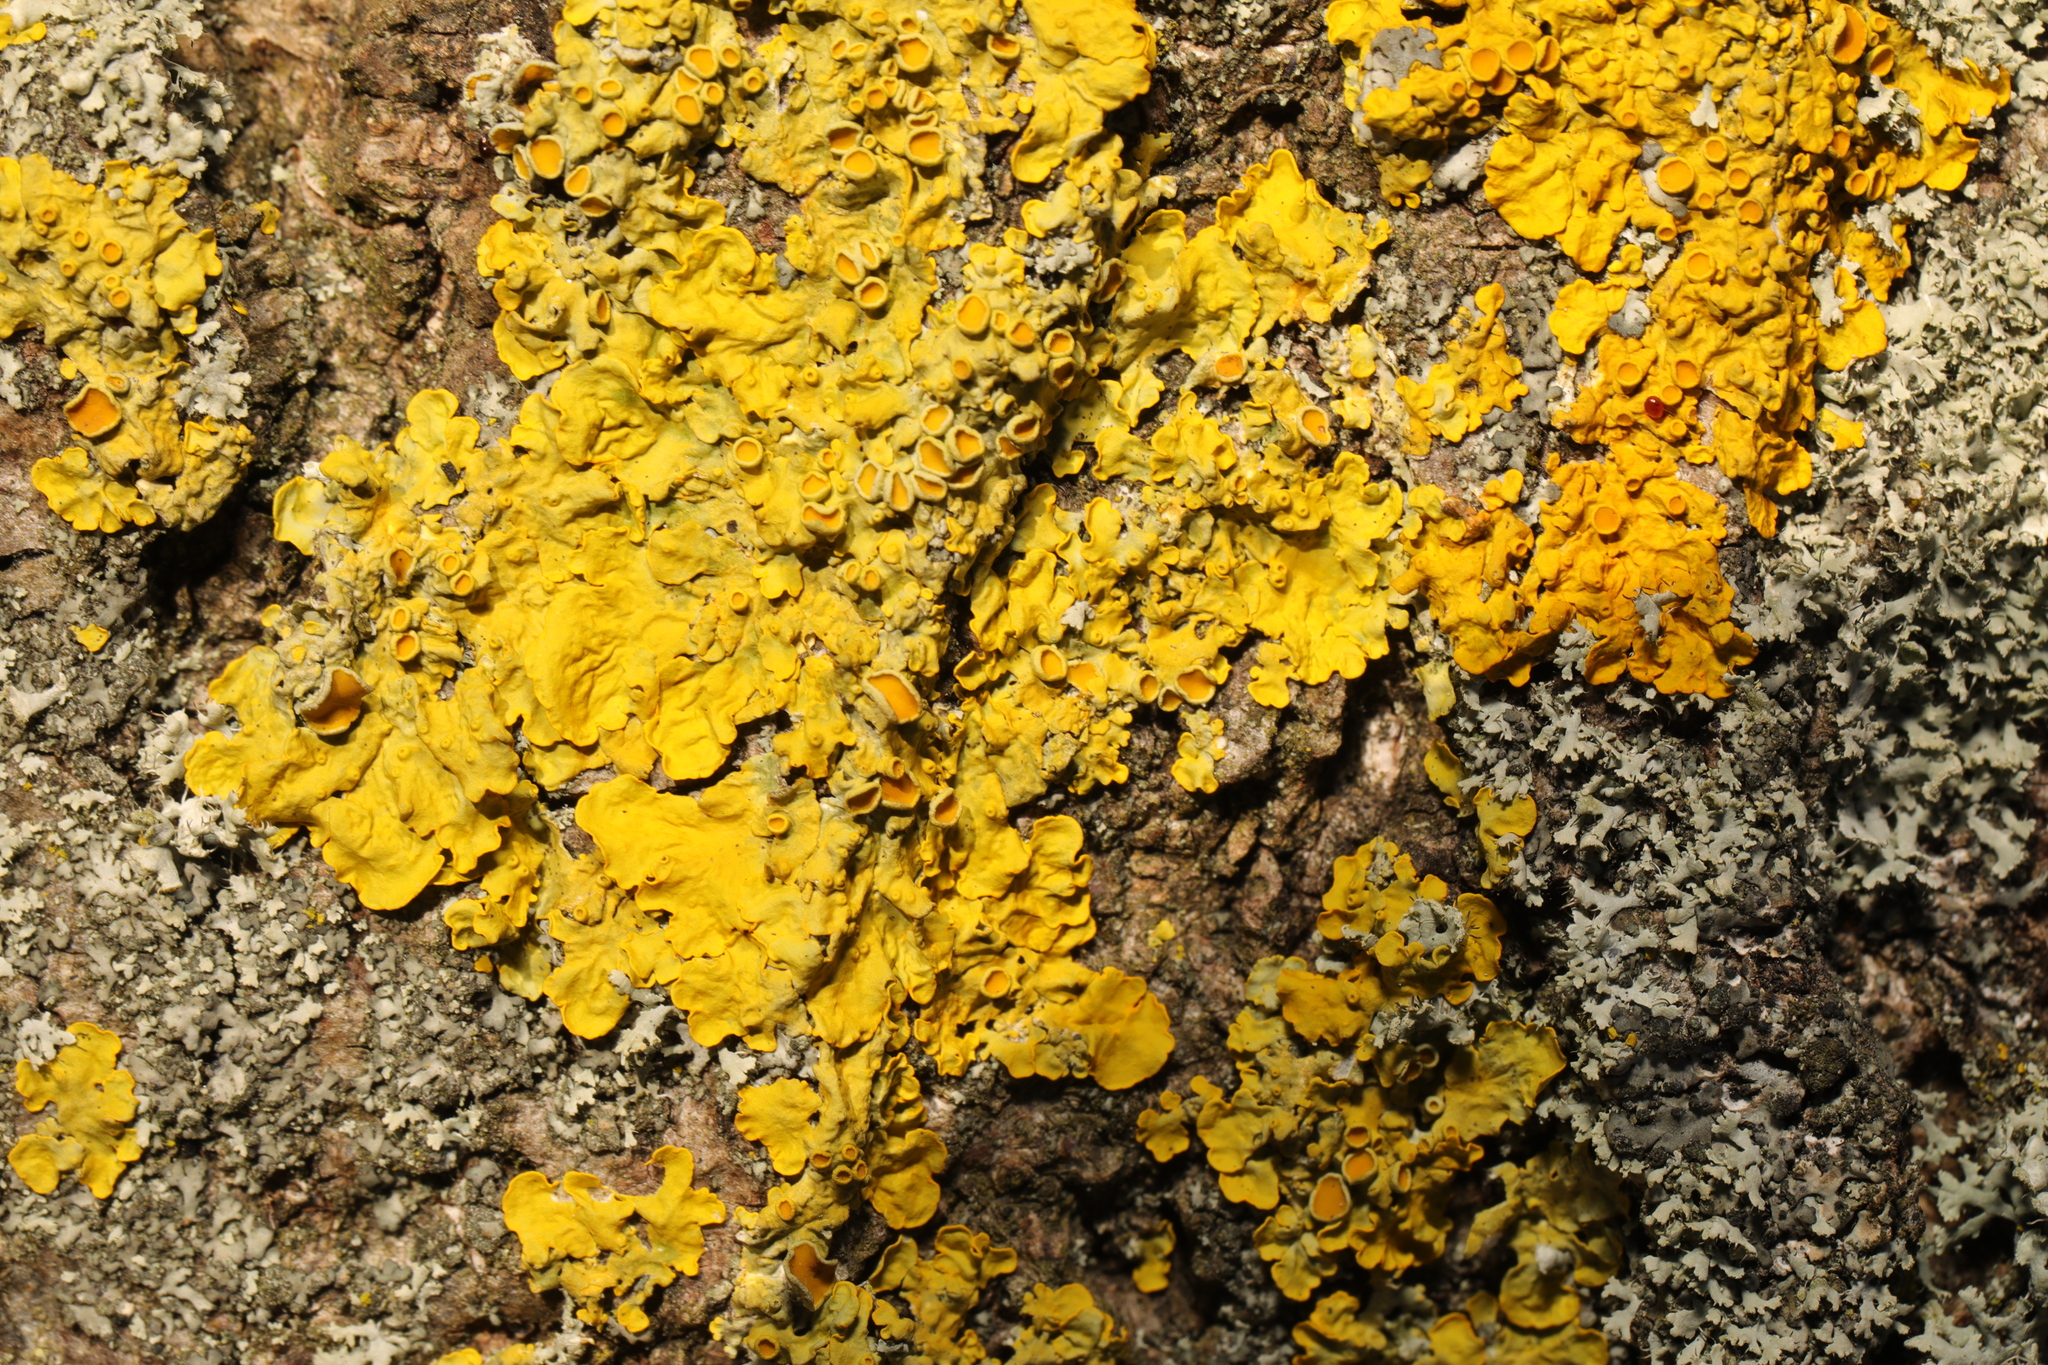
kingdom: Fungi
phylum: Ascomycota
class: Lecanoromycetes
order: Teloschistales
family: Teloschistaceae
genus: Xanthoria
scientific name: Xanthoria parietina
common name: Common orange lichen
